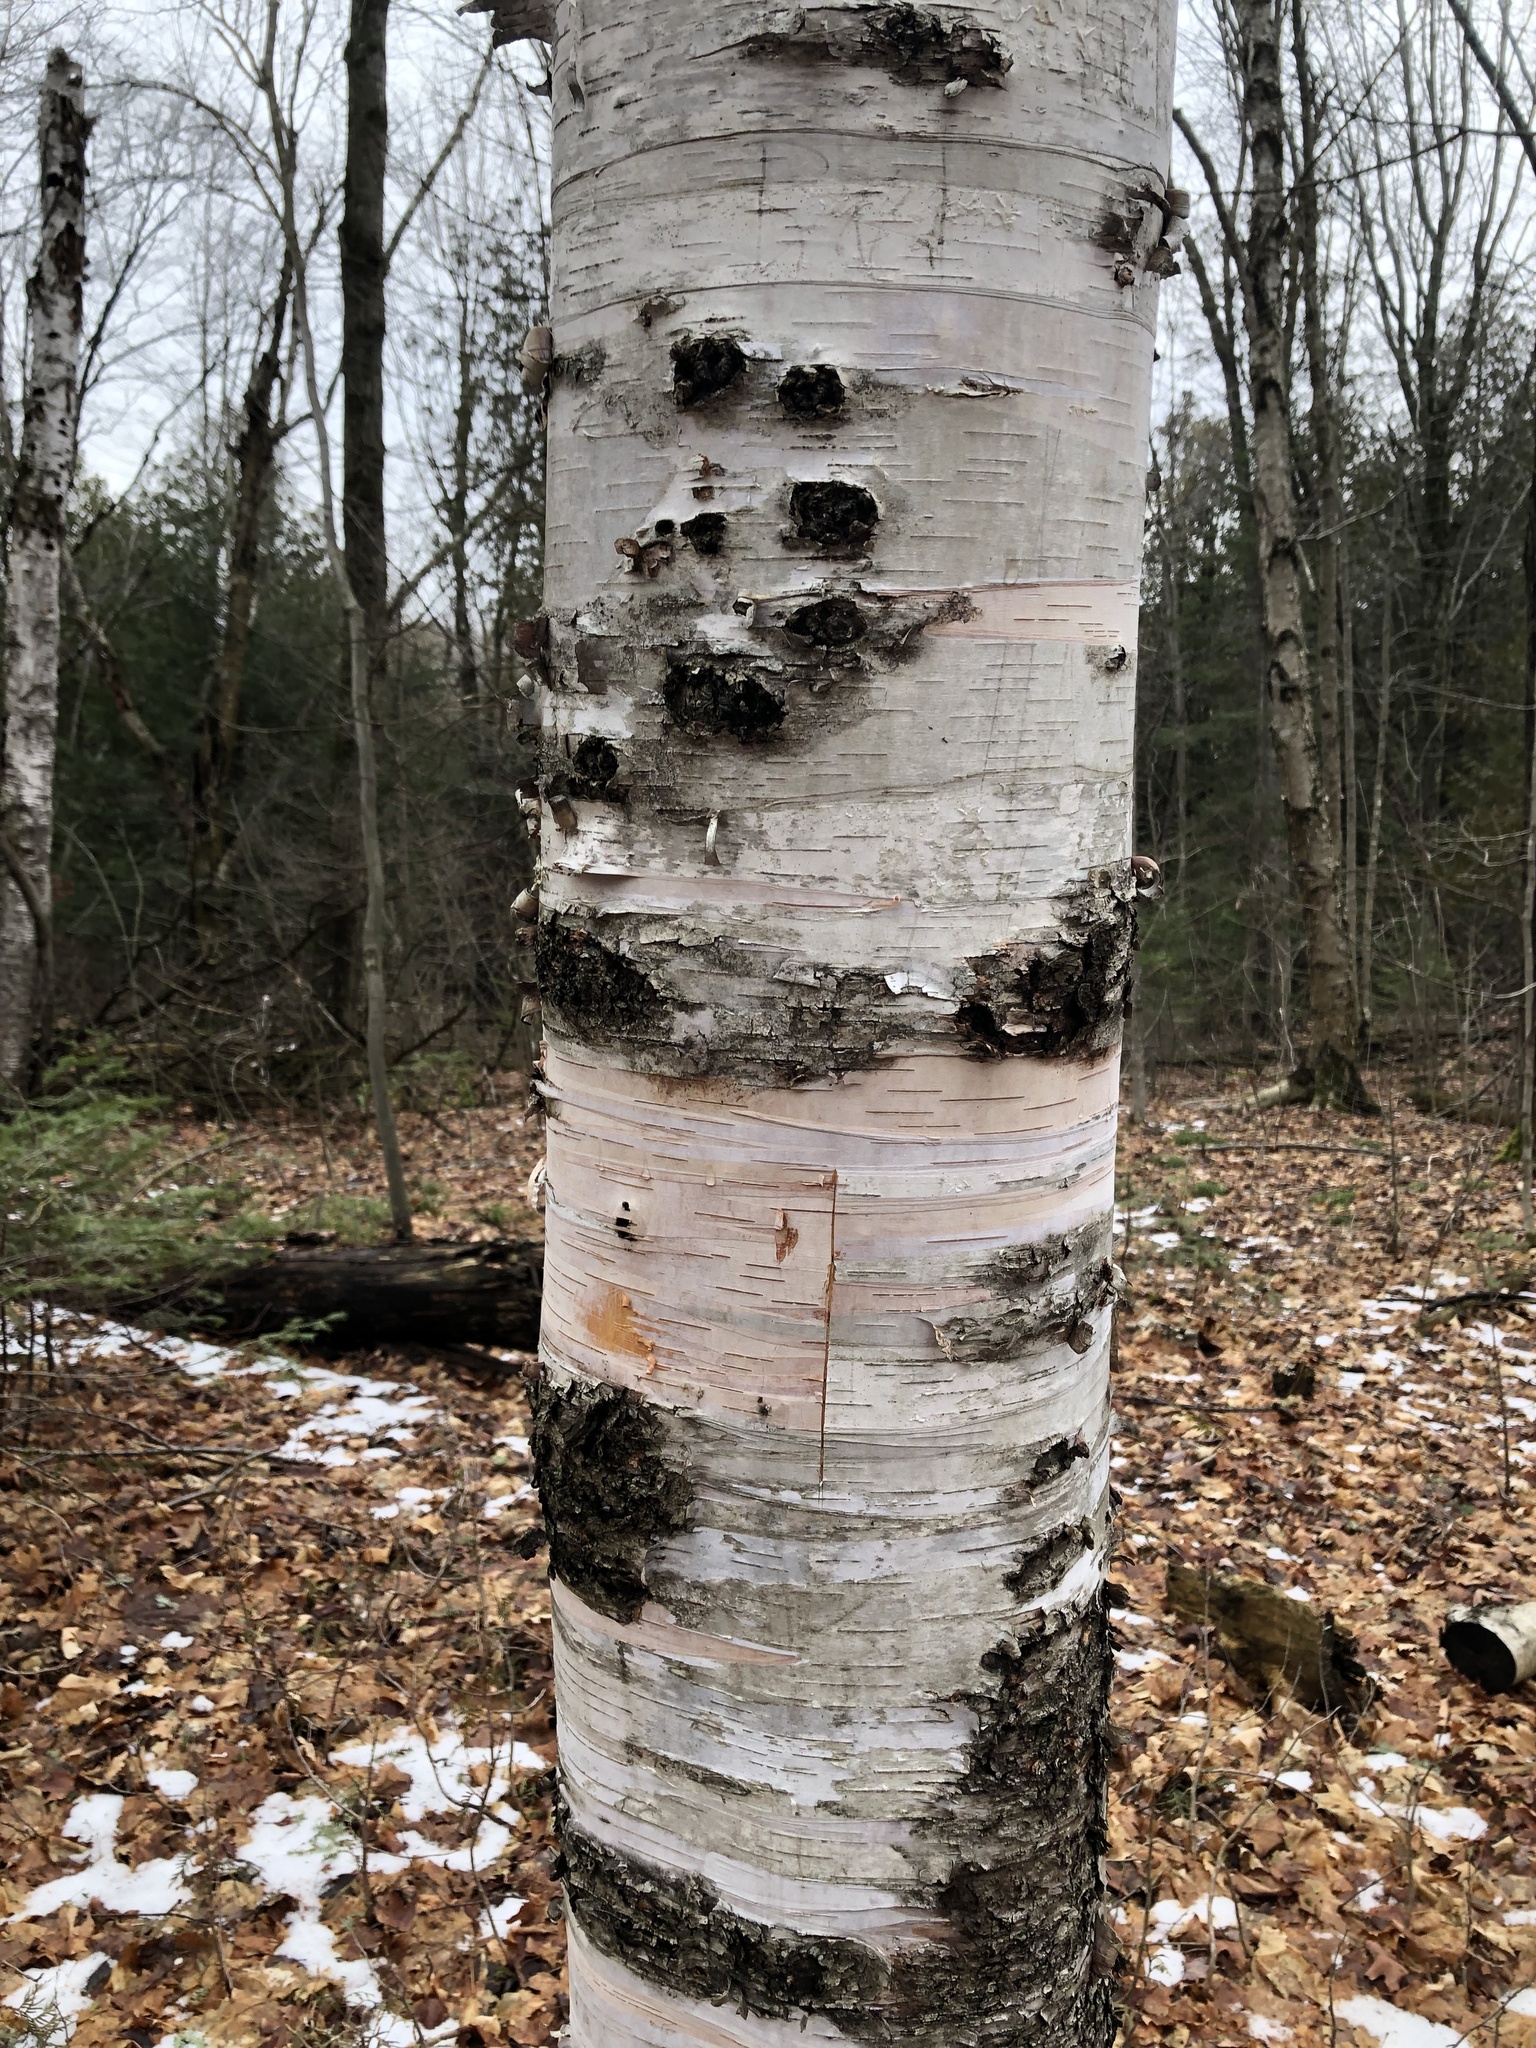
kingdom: Plantae
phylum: Tracheophyta
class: Magnoliopsida
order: Fagales
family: Betulaceae
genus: Betula
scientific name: Betula papyrifera
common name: Paper birch
